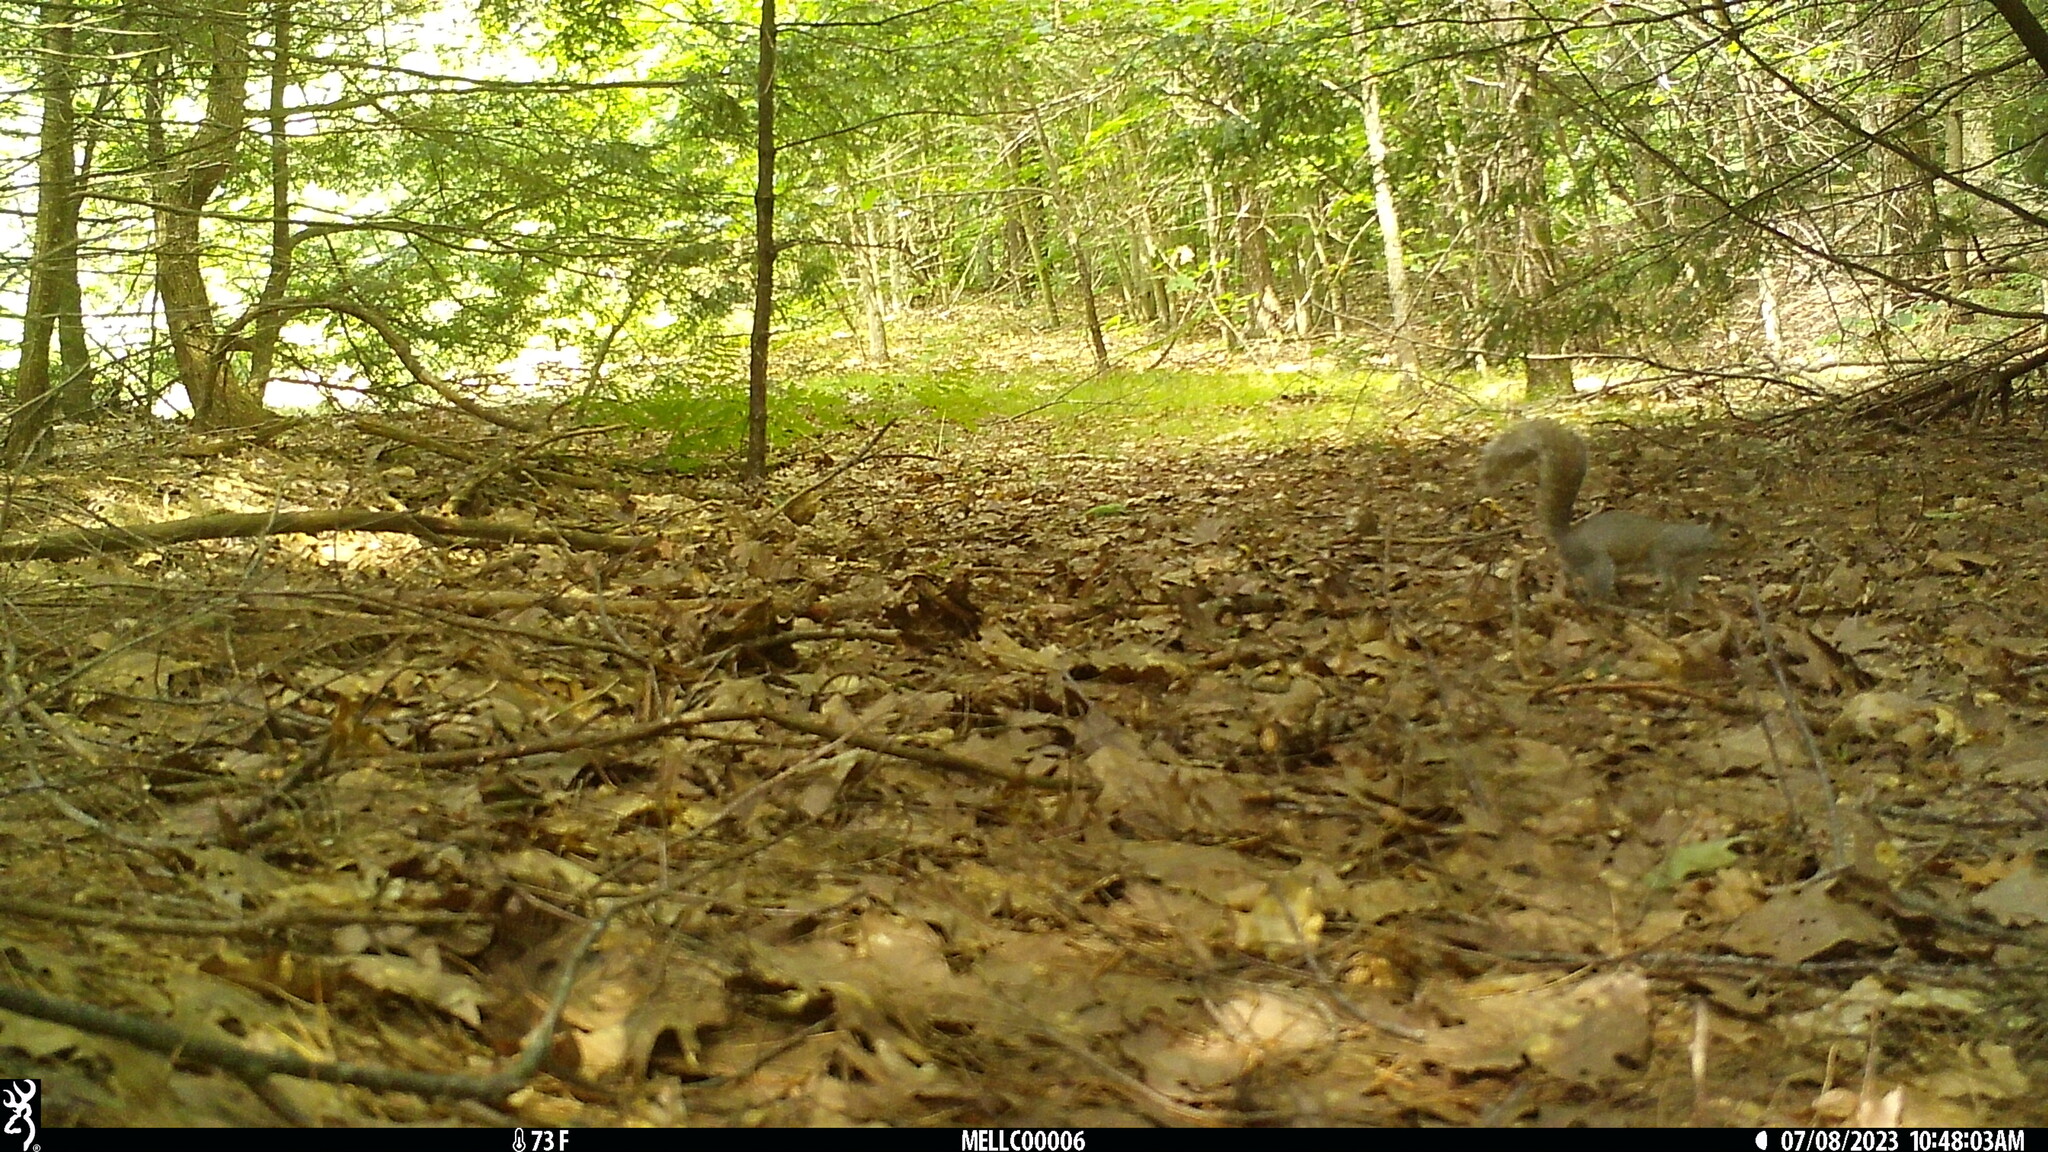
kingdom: Animalia
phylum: Chordata
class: Mammalia
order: Rodentia
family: Sciuridae
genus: Sciurus
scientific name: Sciurus carolinensis
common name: Eastern gray squirrel
